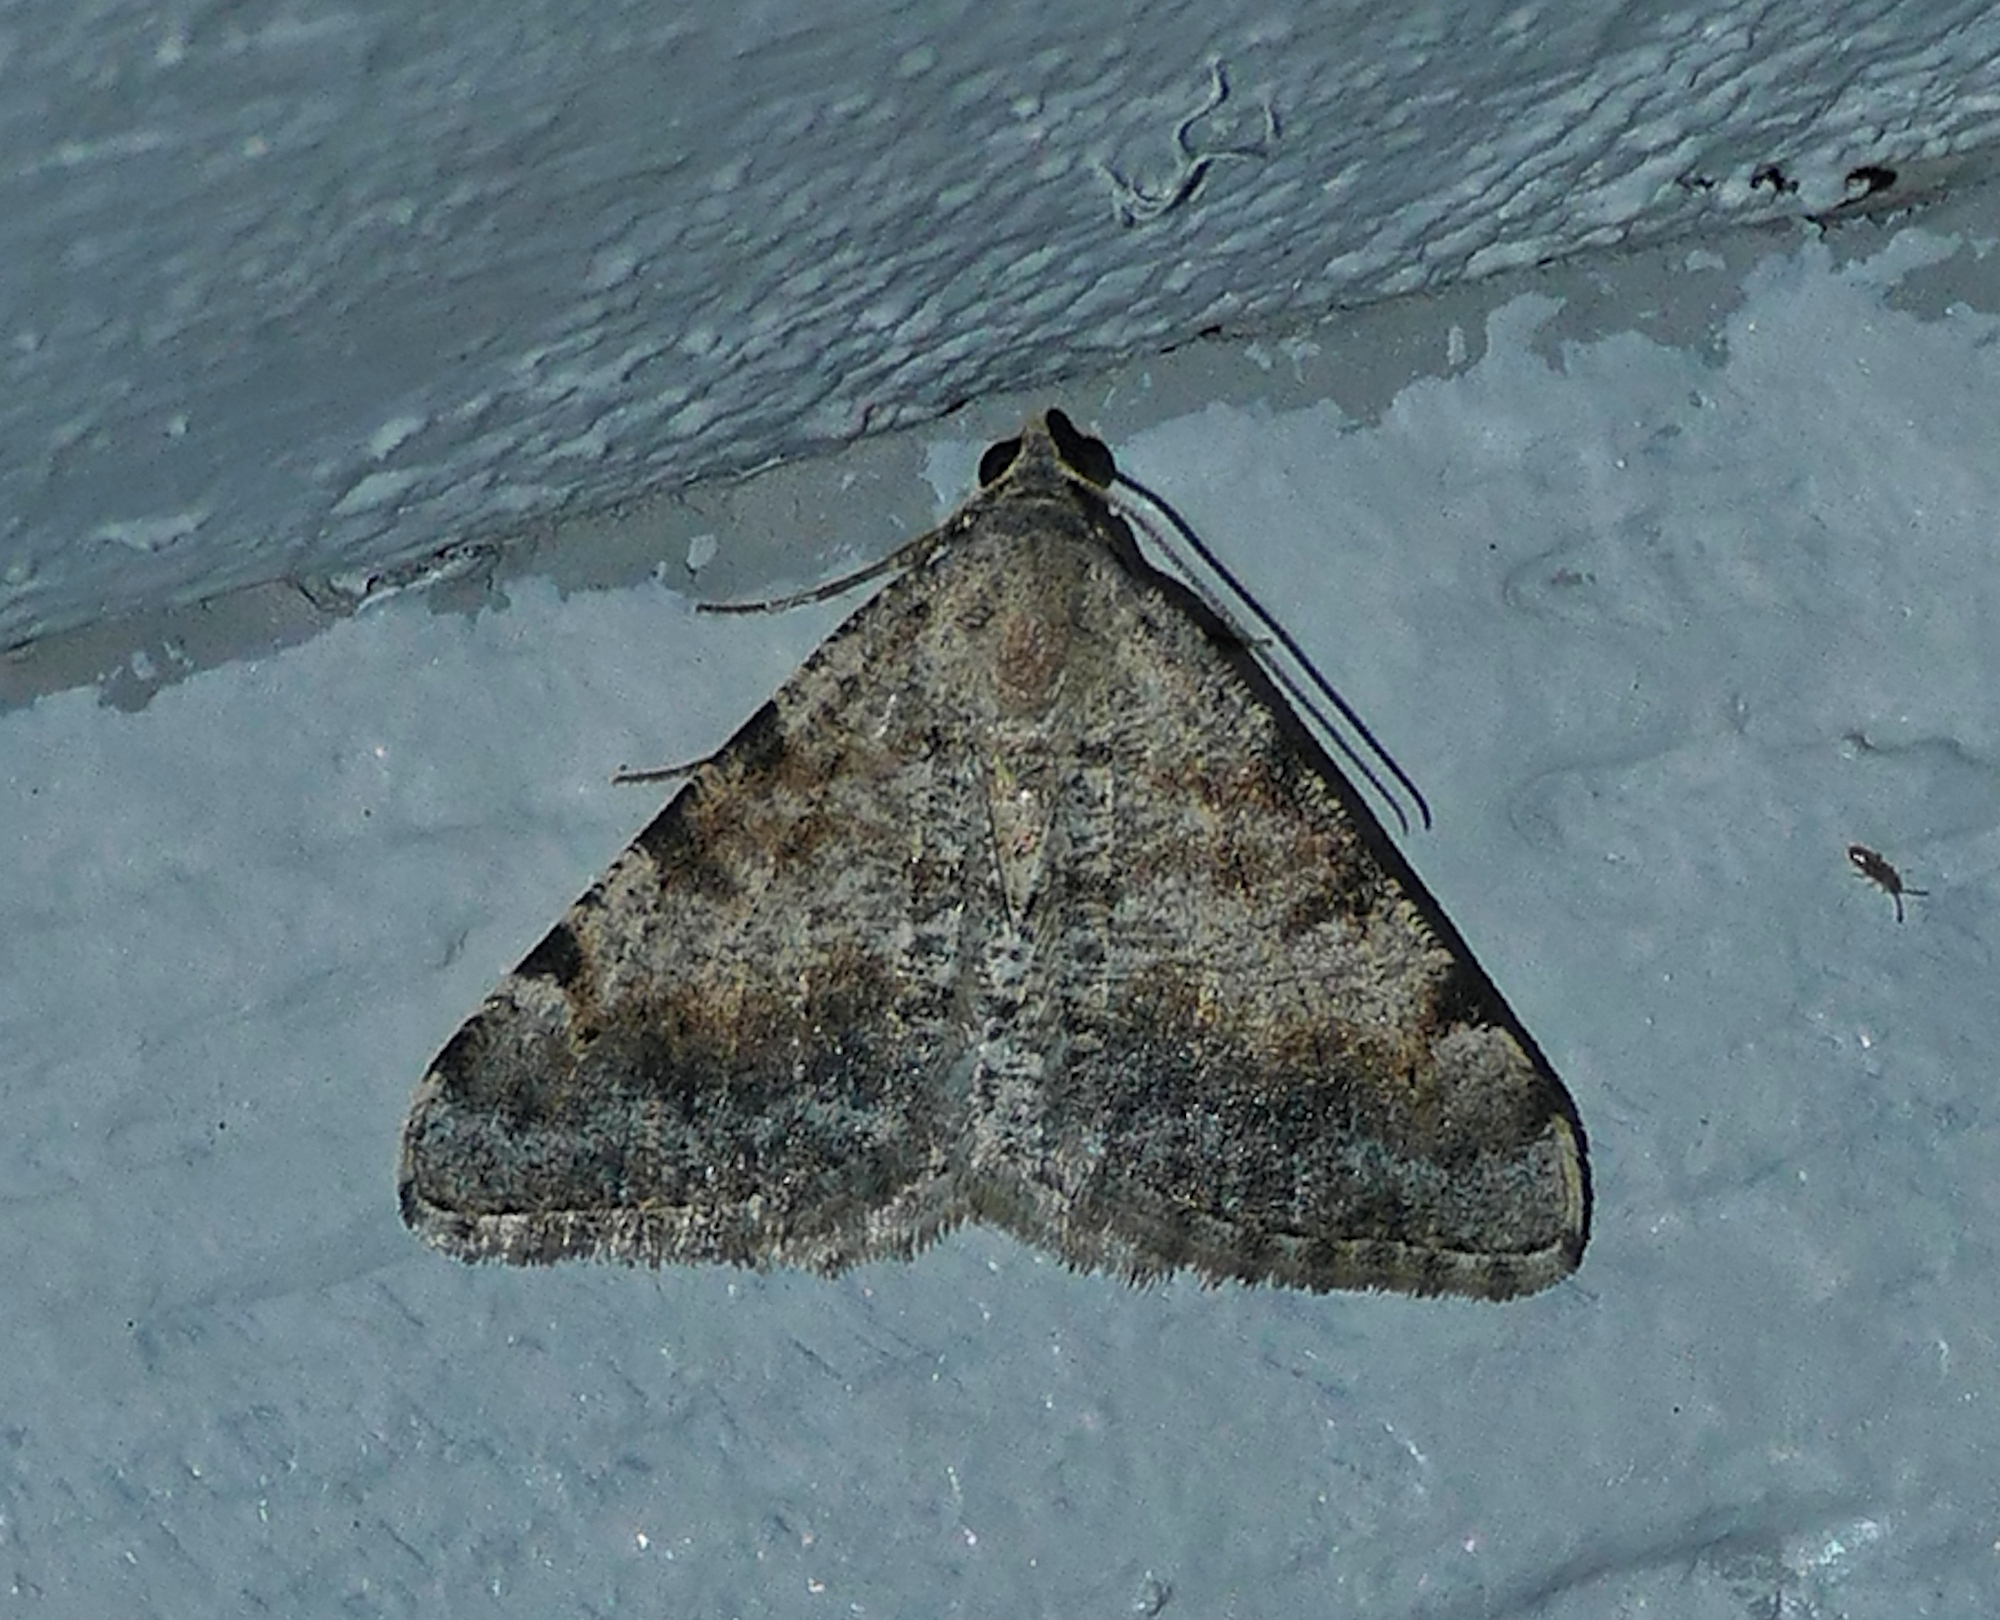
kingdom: Animalia
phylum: Arthropoda
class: Insecta
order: Lepidoptera
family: Geometridae
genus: Digrammia
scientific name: Digrammia colorata
